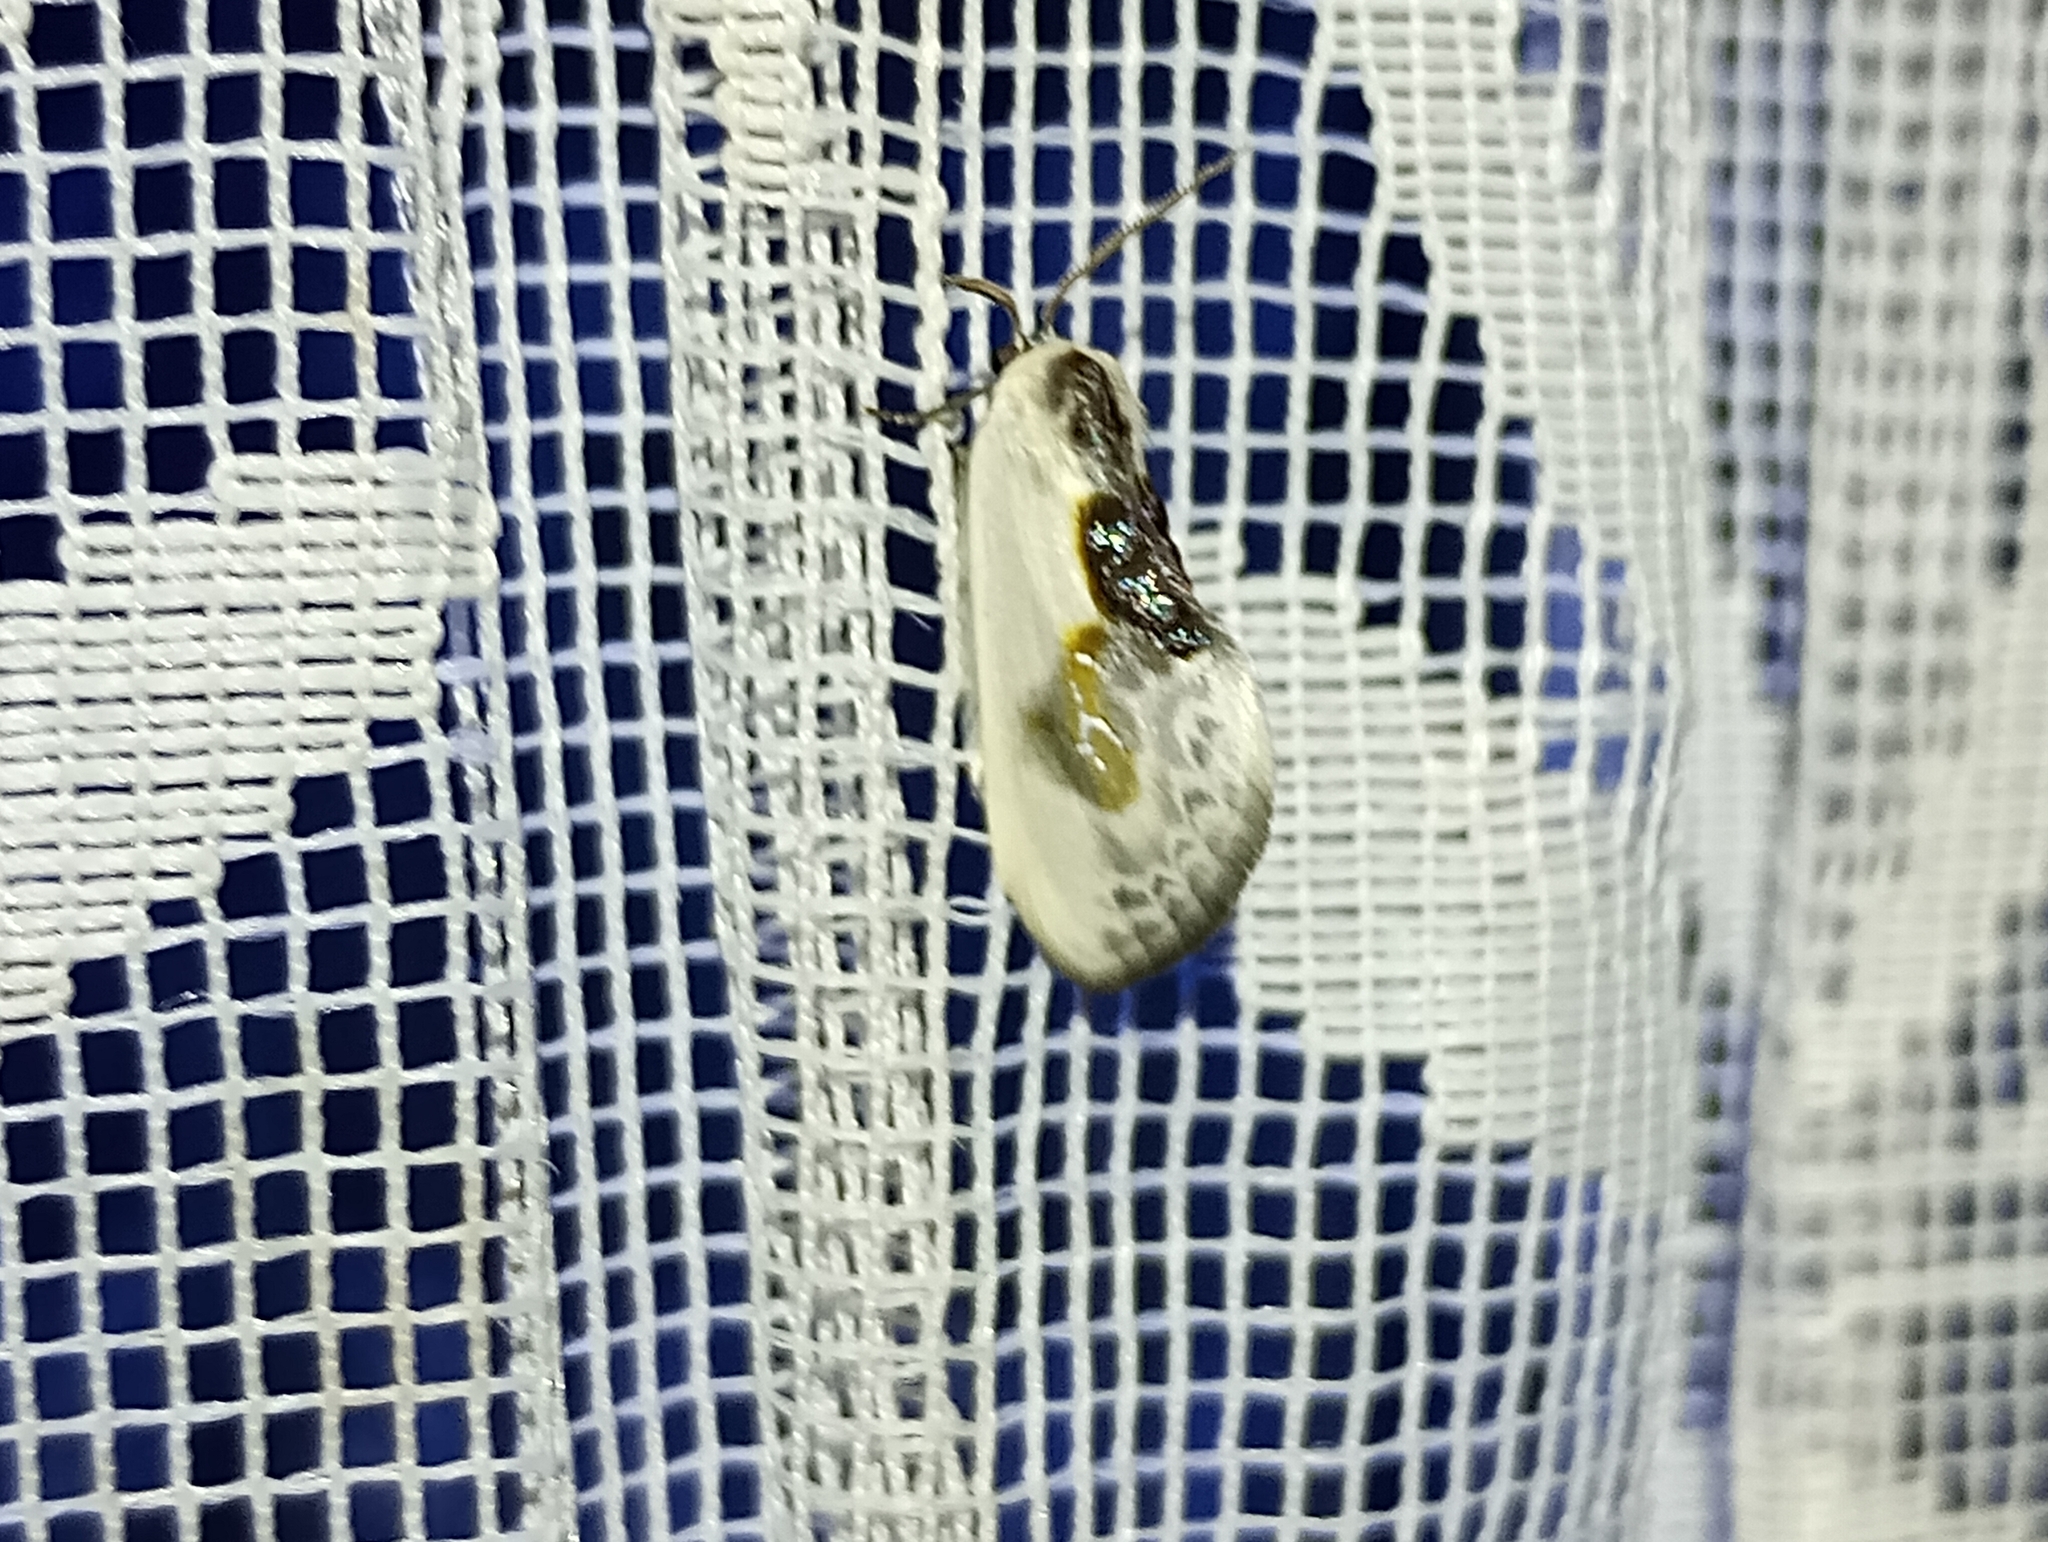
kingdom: Animalia
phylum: Arthropoda
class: Insecta
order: Lepidoptera
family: Drepanidae
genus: Cilix
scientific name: Cilix glaucata
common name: Chinese character
